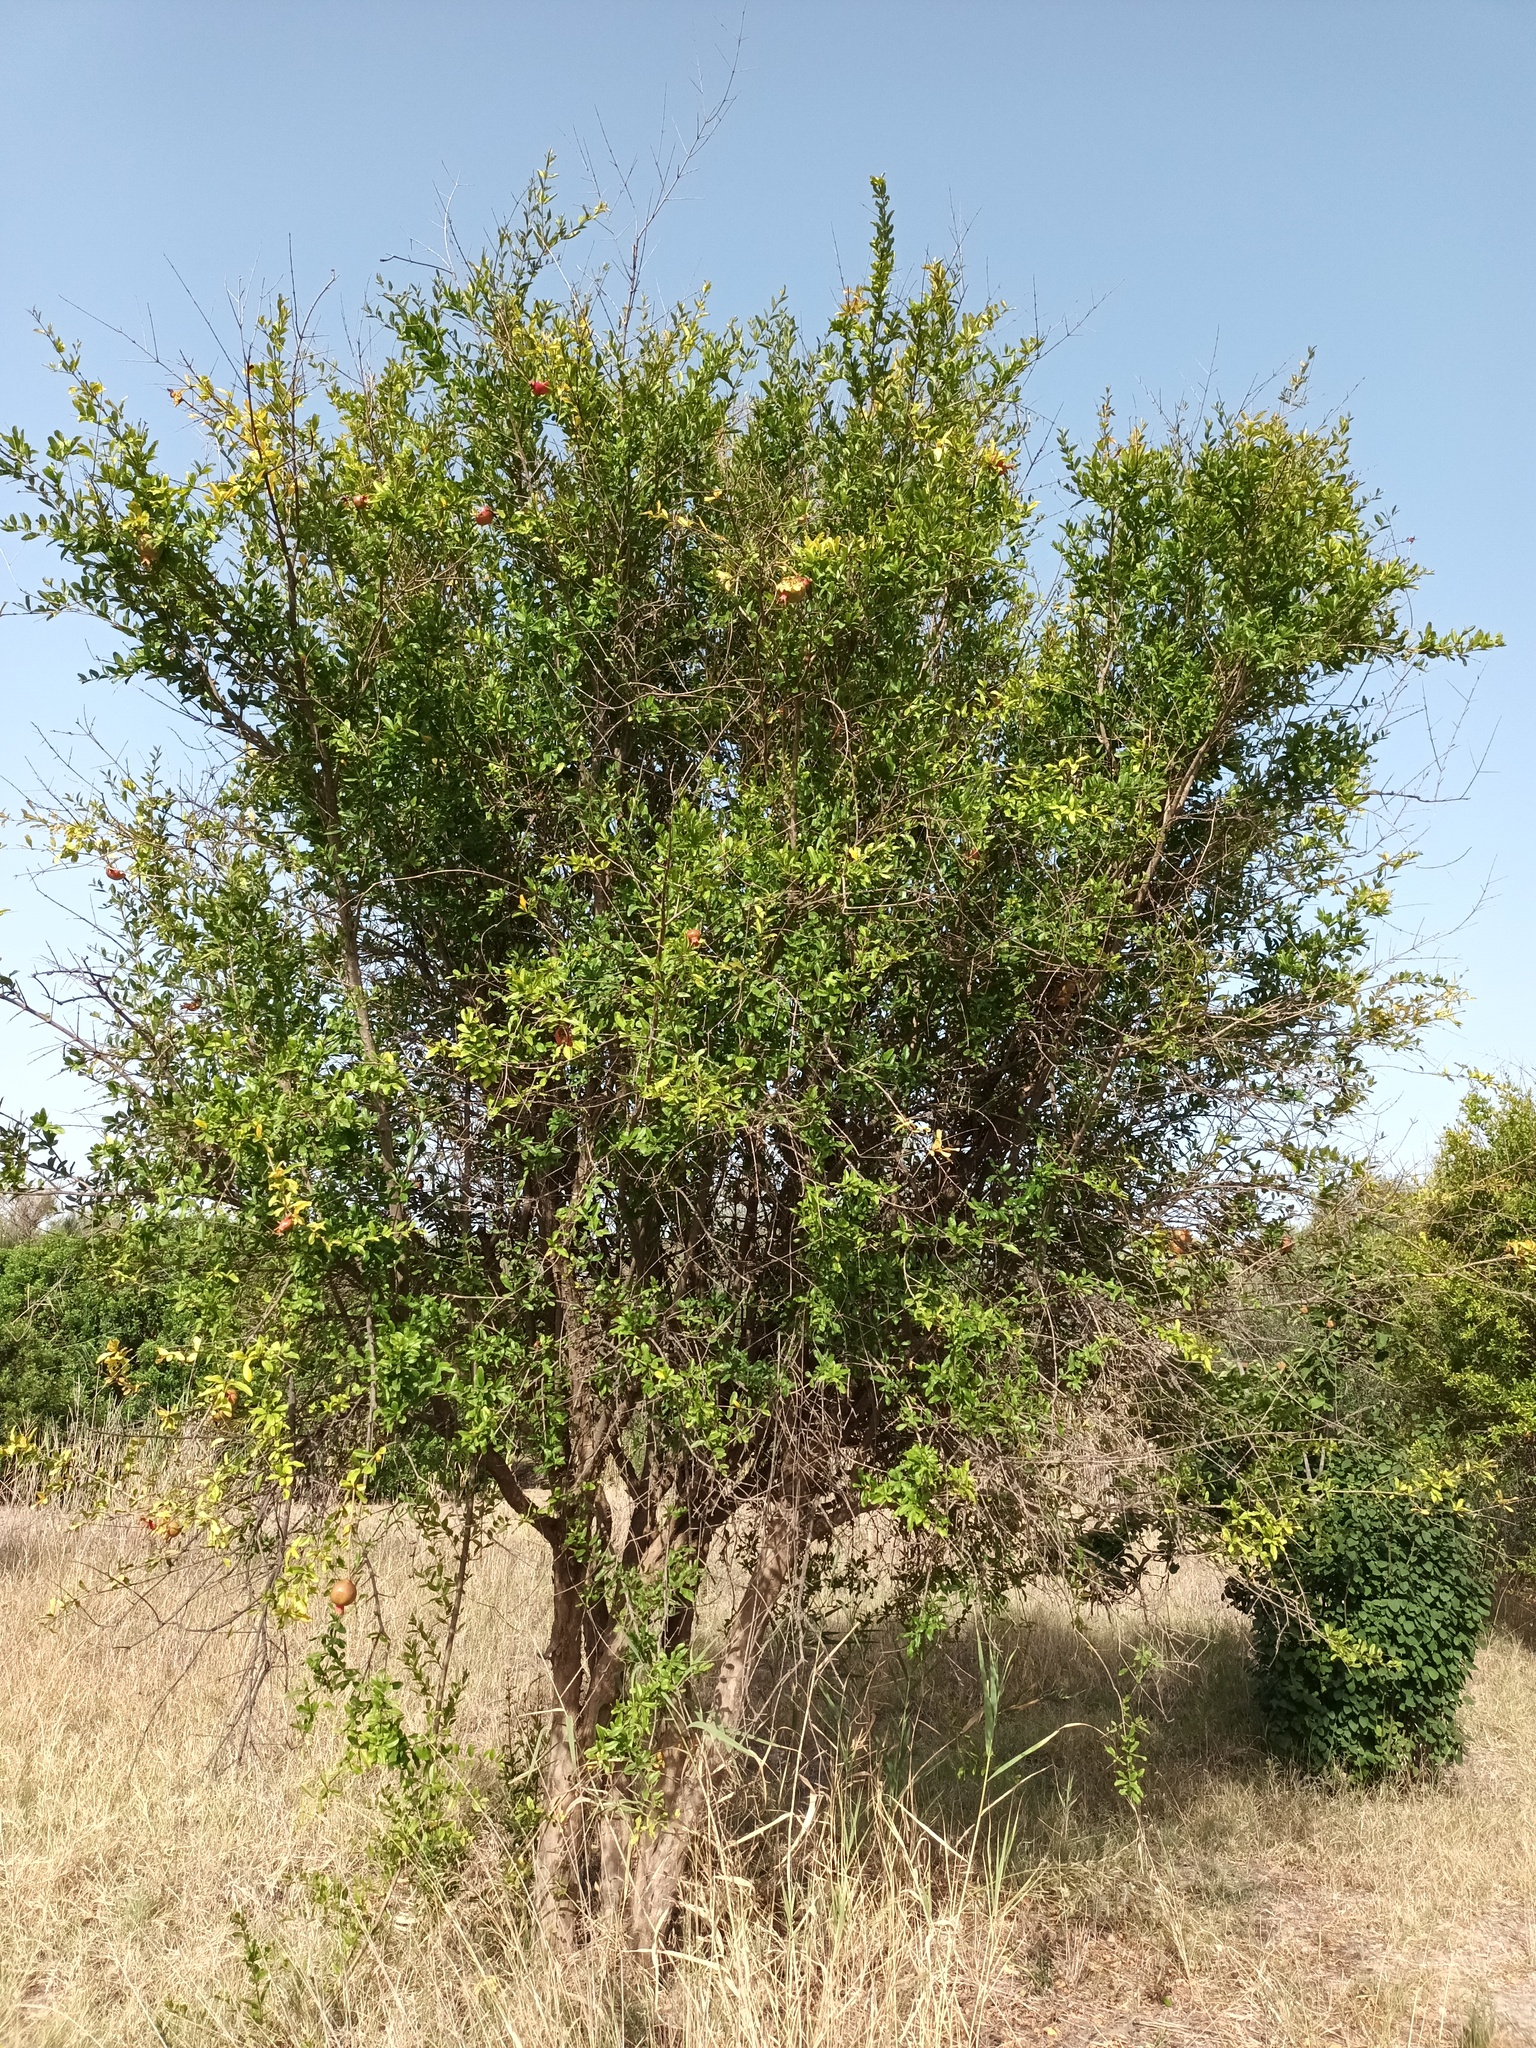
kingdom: Plantae
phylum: Tracheophyta
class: Magnoliopsida
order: Myrtales
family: Lythraceae
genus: Punica
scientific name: Punica granatum
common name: Pomegranate
